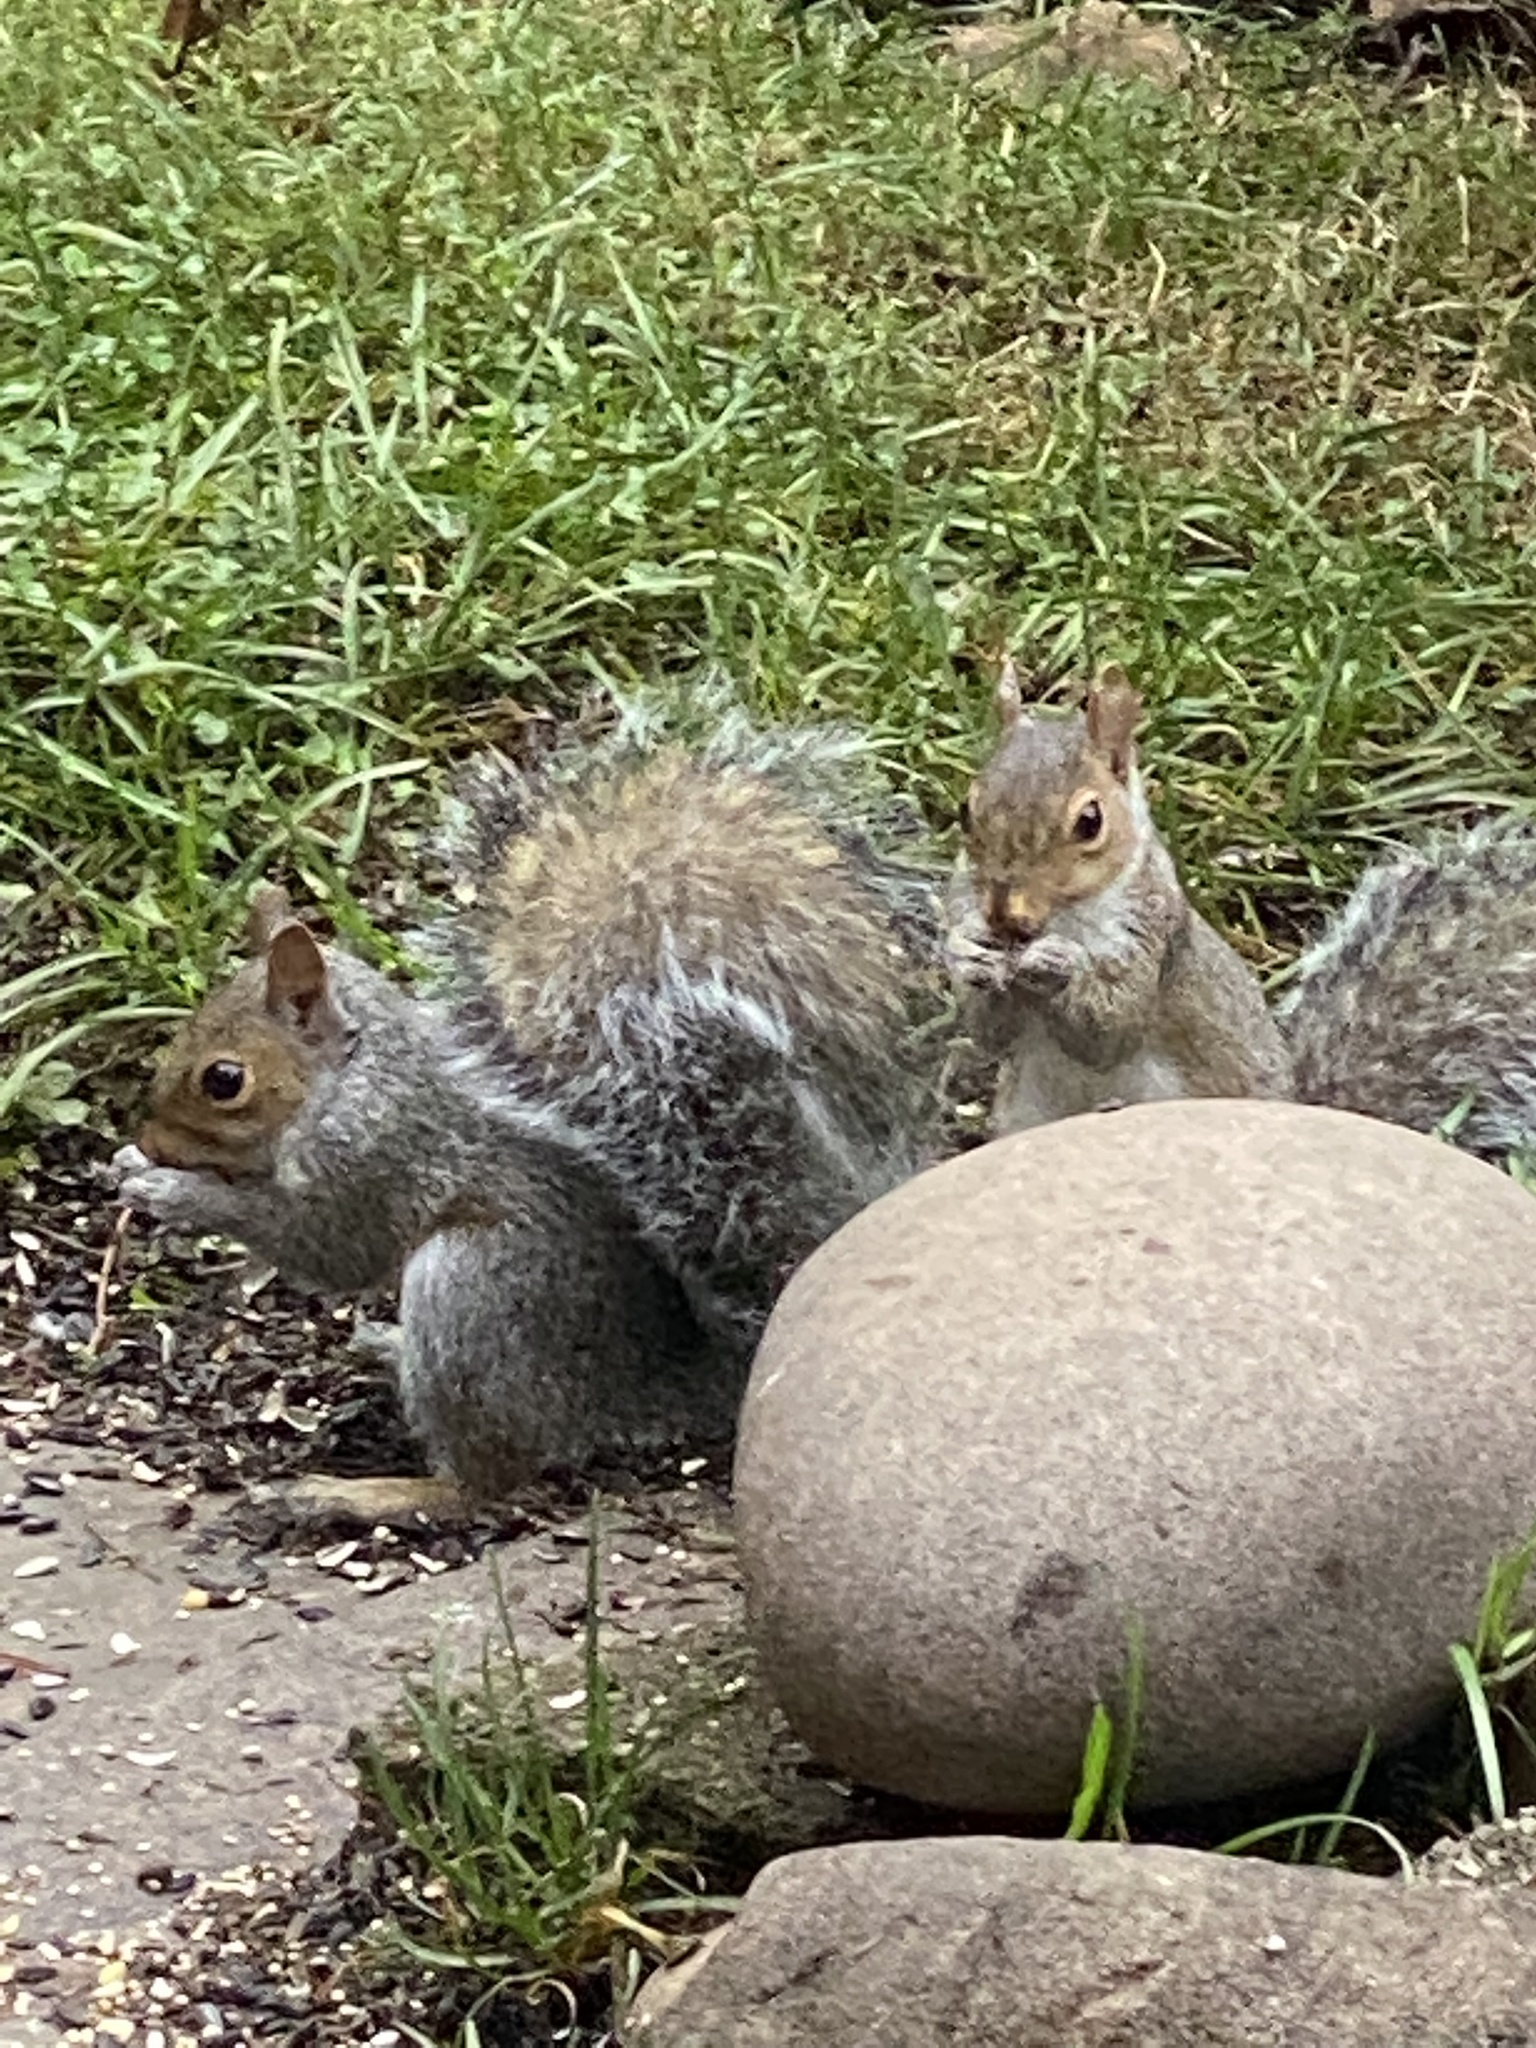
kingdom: Animalia
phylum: Chordata
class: Mammalia
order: Rodentia
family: Sciuridae
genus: Sciurus
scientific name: Sciurus carolinensis
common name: Eastern gray squirrel
